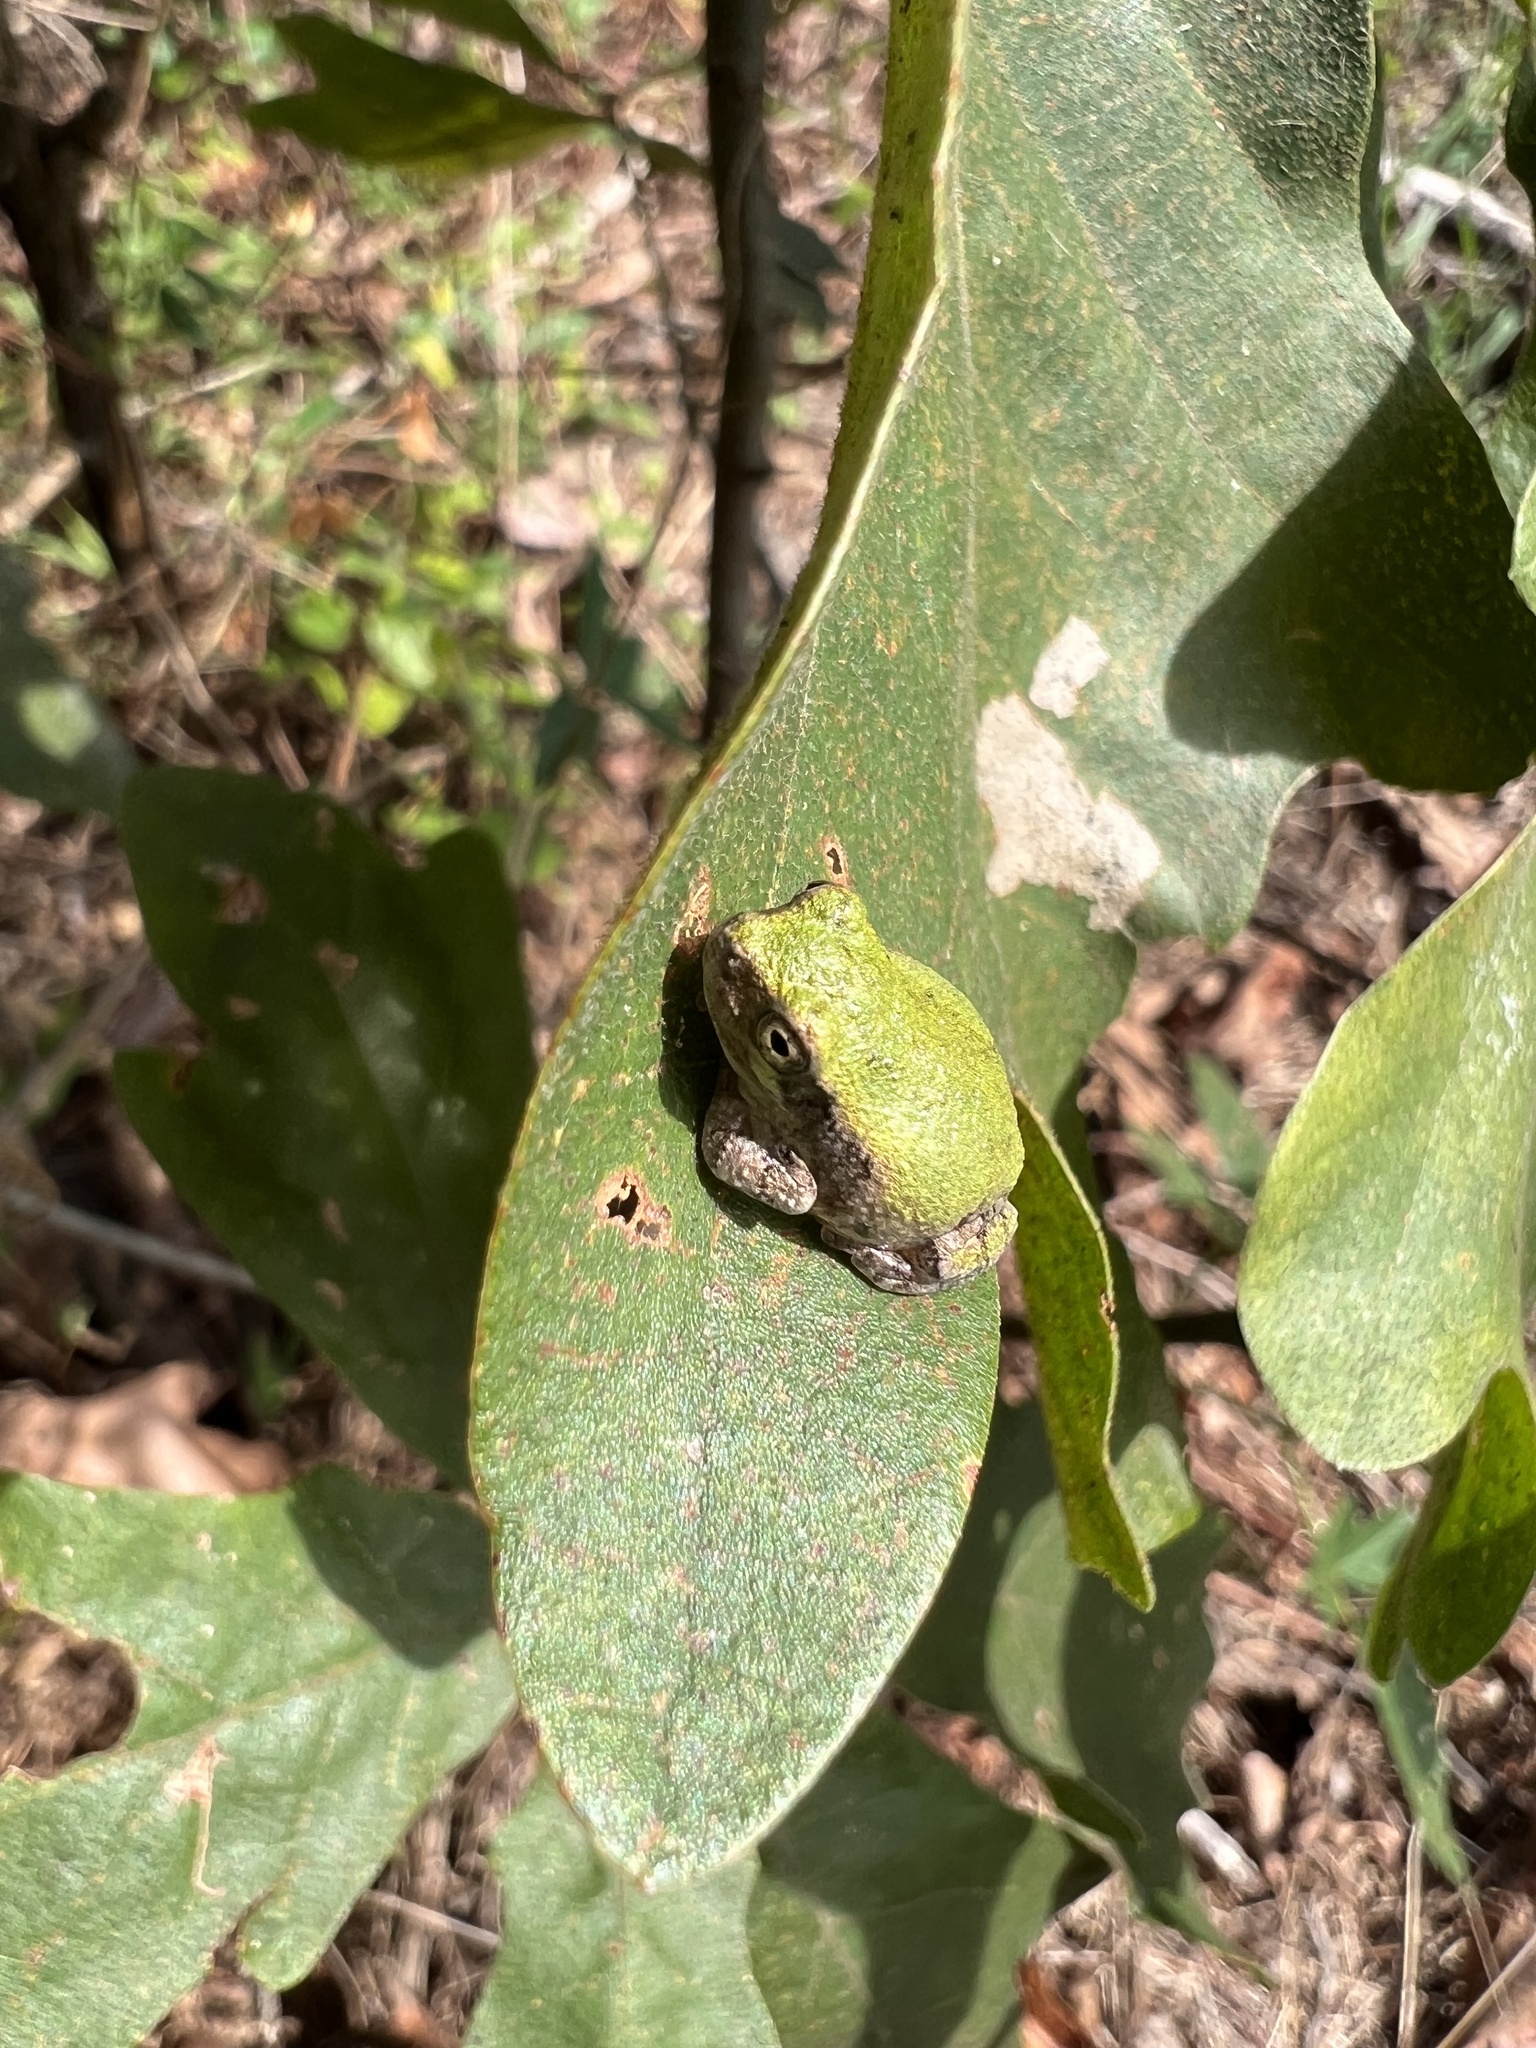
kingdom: Animalia
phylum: Chordata
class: Amphibia
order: Anura
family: Hylidae
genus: Hyla
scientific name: Hyla
